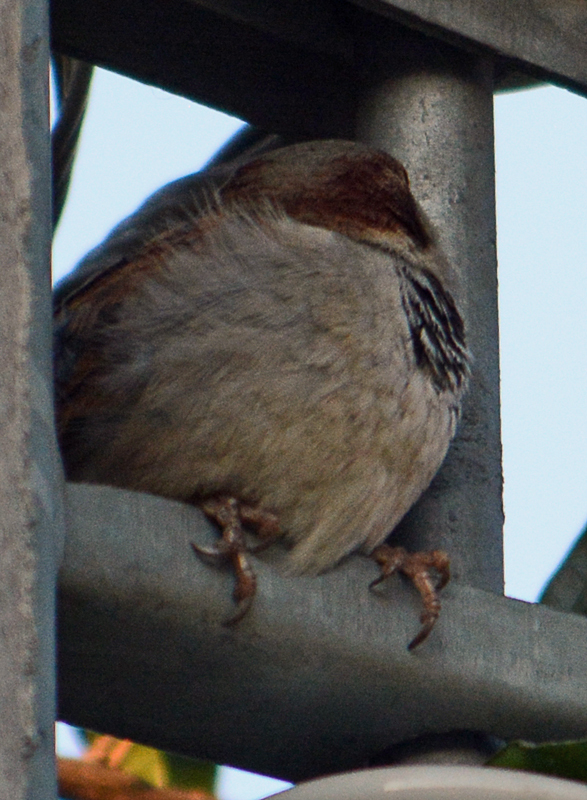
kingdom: Animalia
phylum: Chordata
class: Aves
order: Passeriformes
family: Passeridae
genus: Passer
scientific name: Passer domesticus
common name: House sparrow
